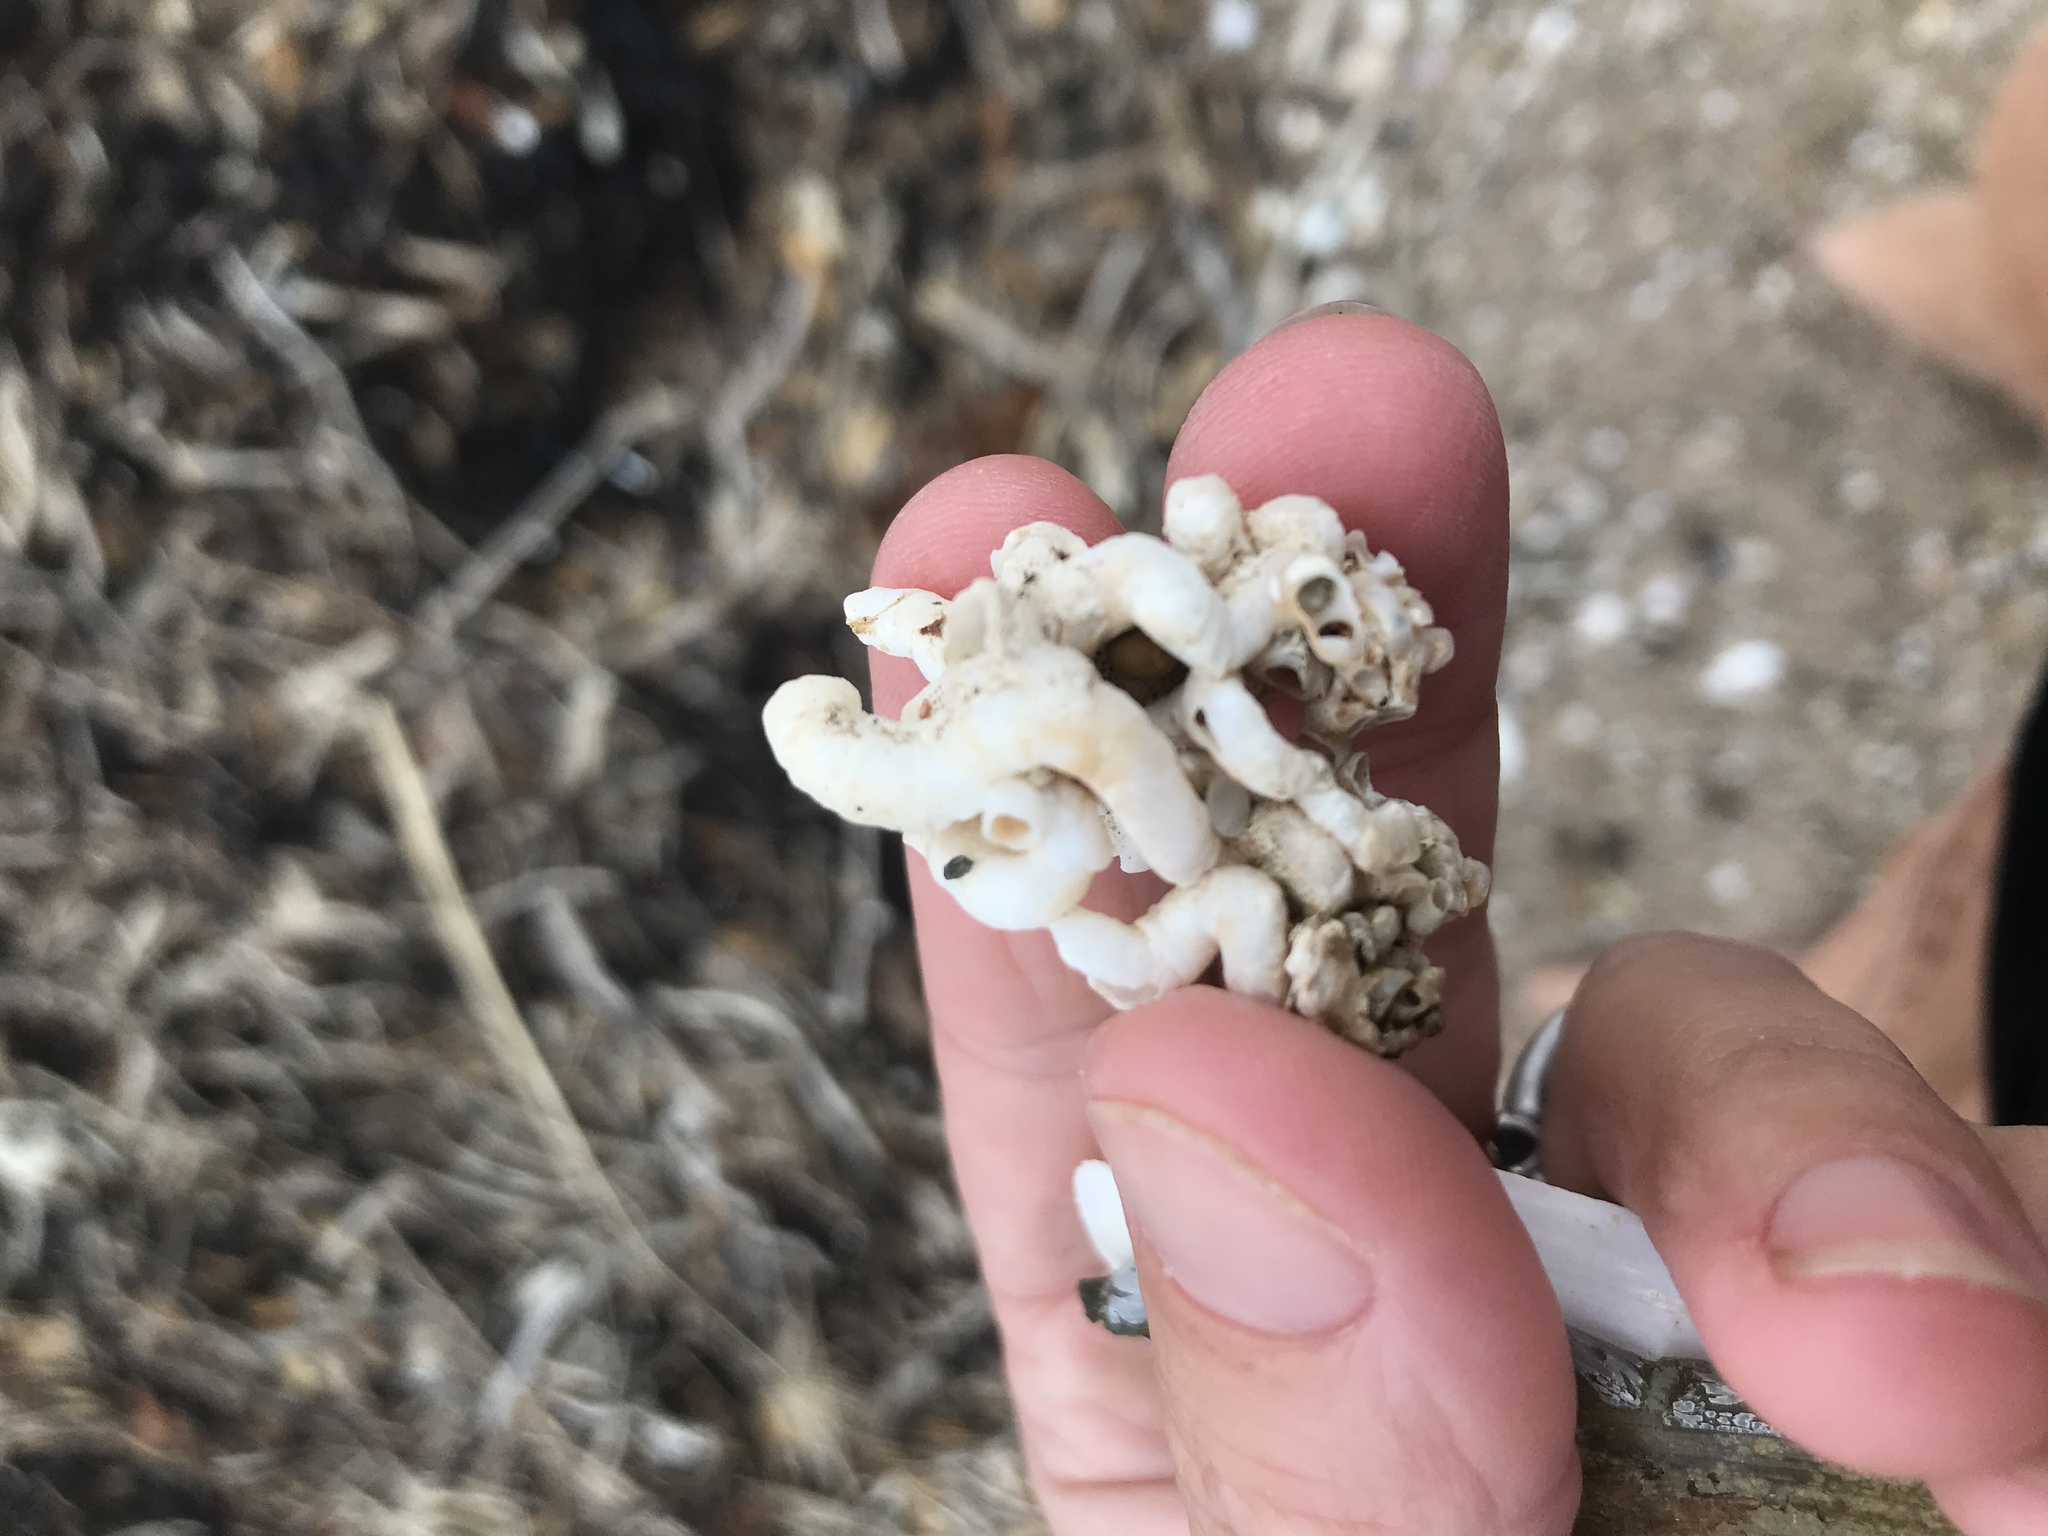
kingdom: Animalia
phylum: Mollusca
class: Gastropoda
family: Siliquariidae
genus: Stephopoma
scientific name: Stephopoma roseum
